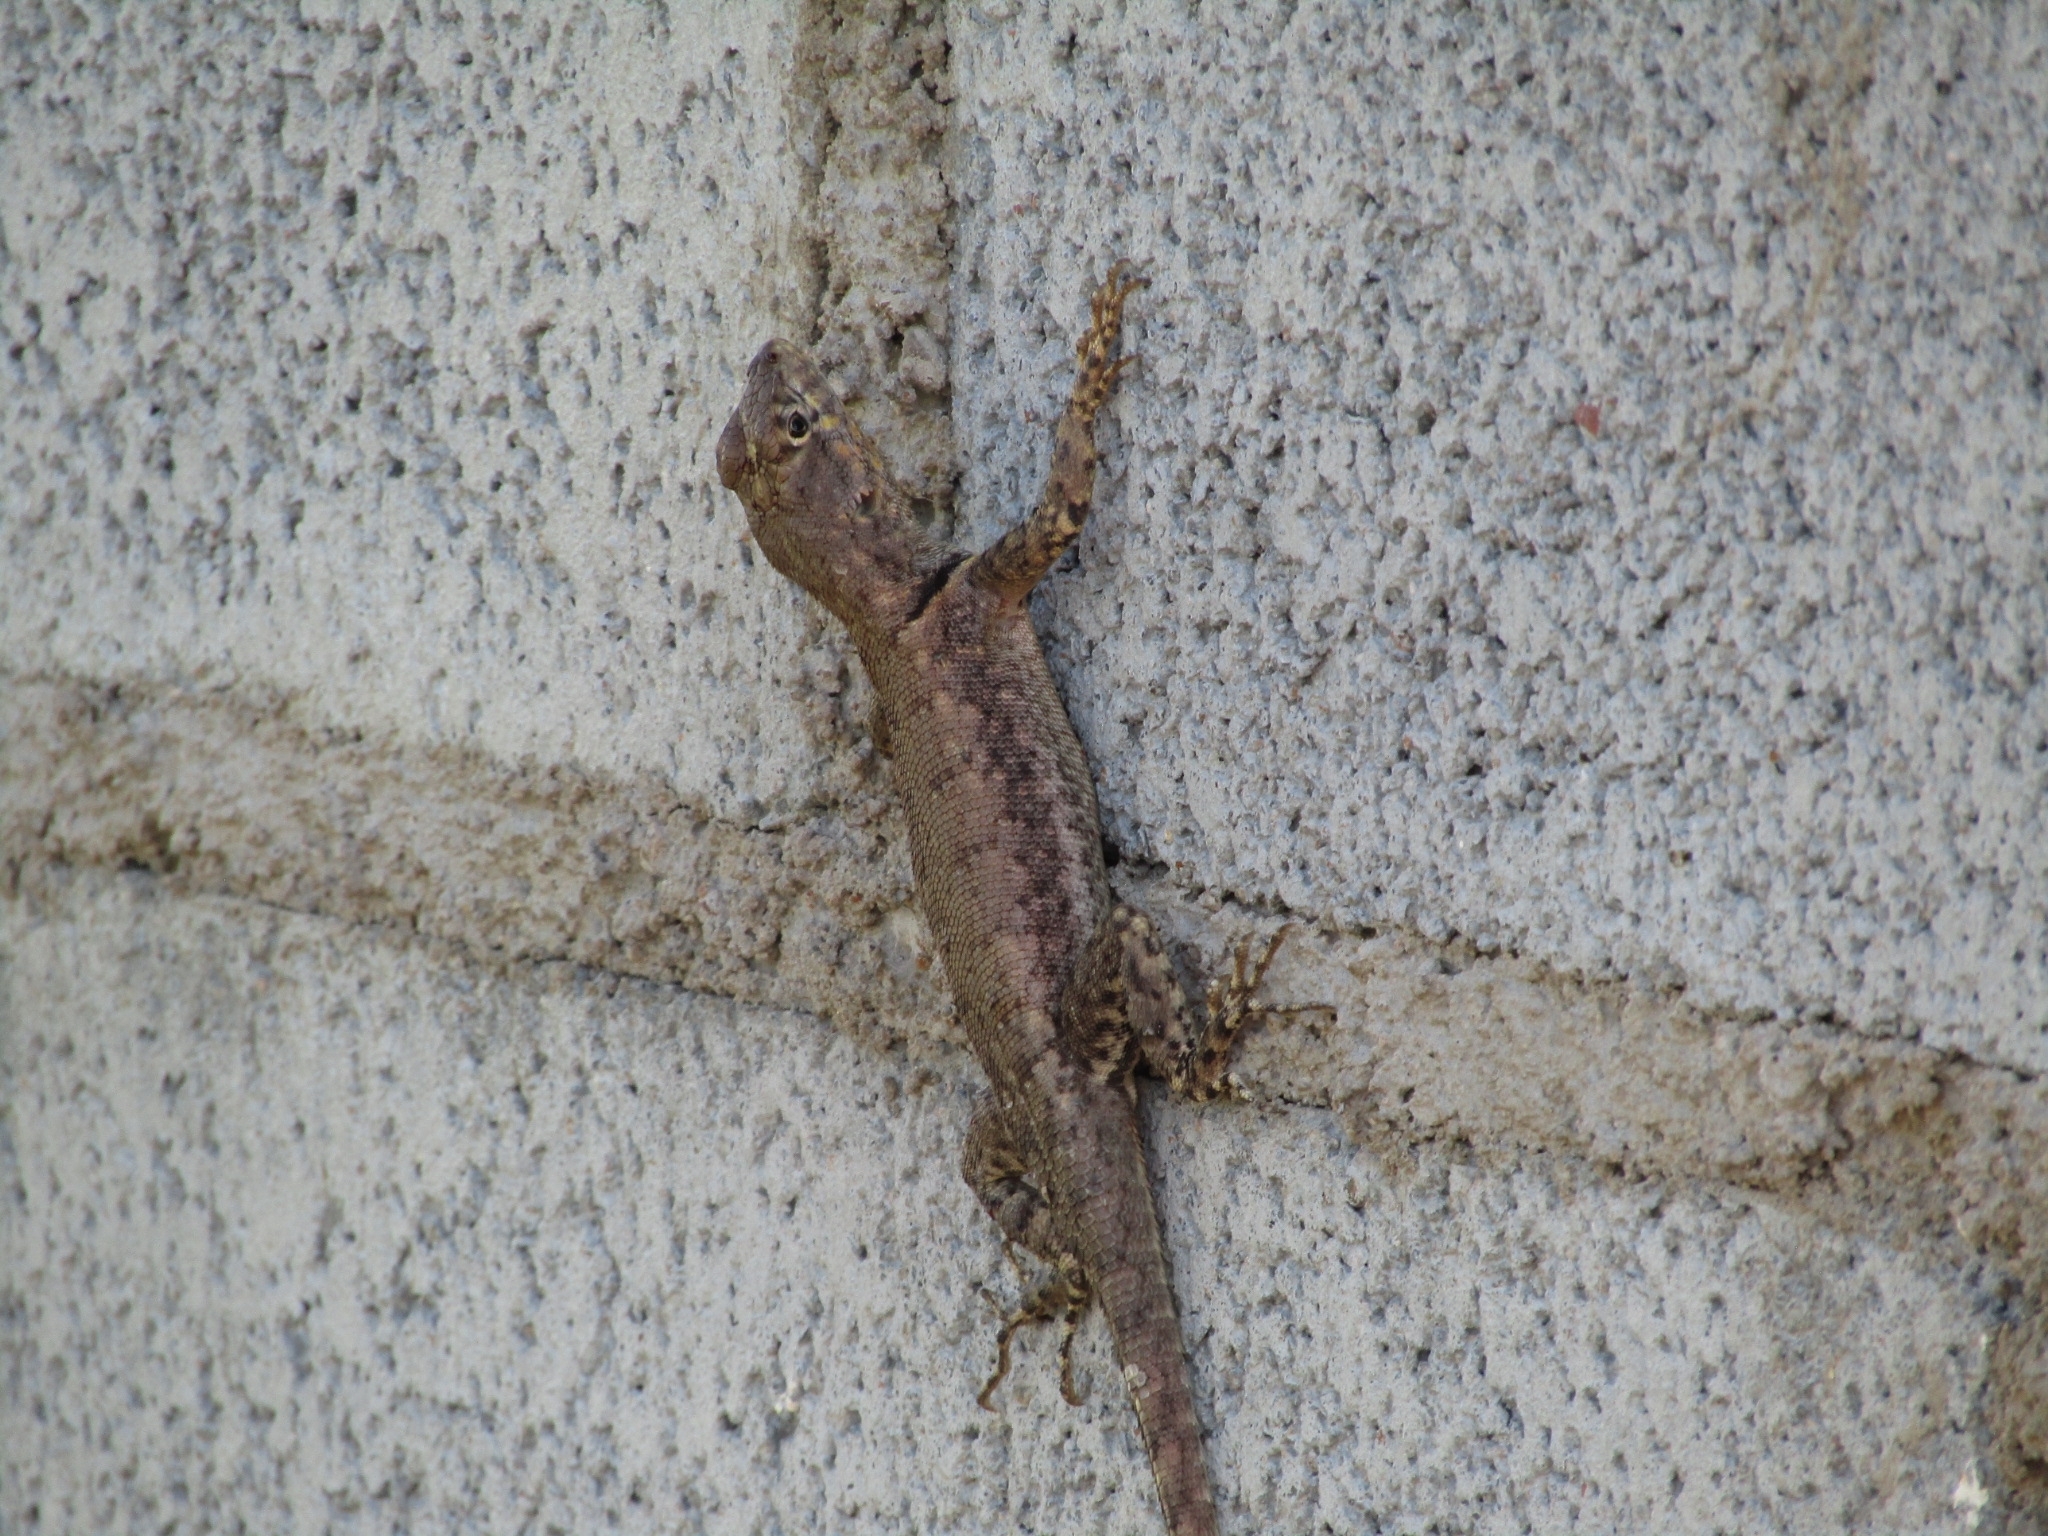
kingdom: Animalia
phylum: Chordata
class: Squamata
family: Tropiduridae
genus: Tropidurus
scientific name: Tropidurus hispidus
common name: Peters' lava lizard
